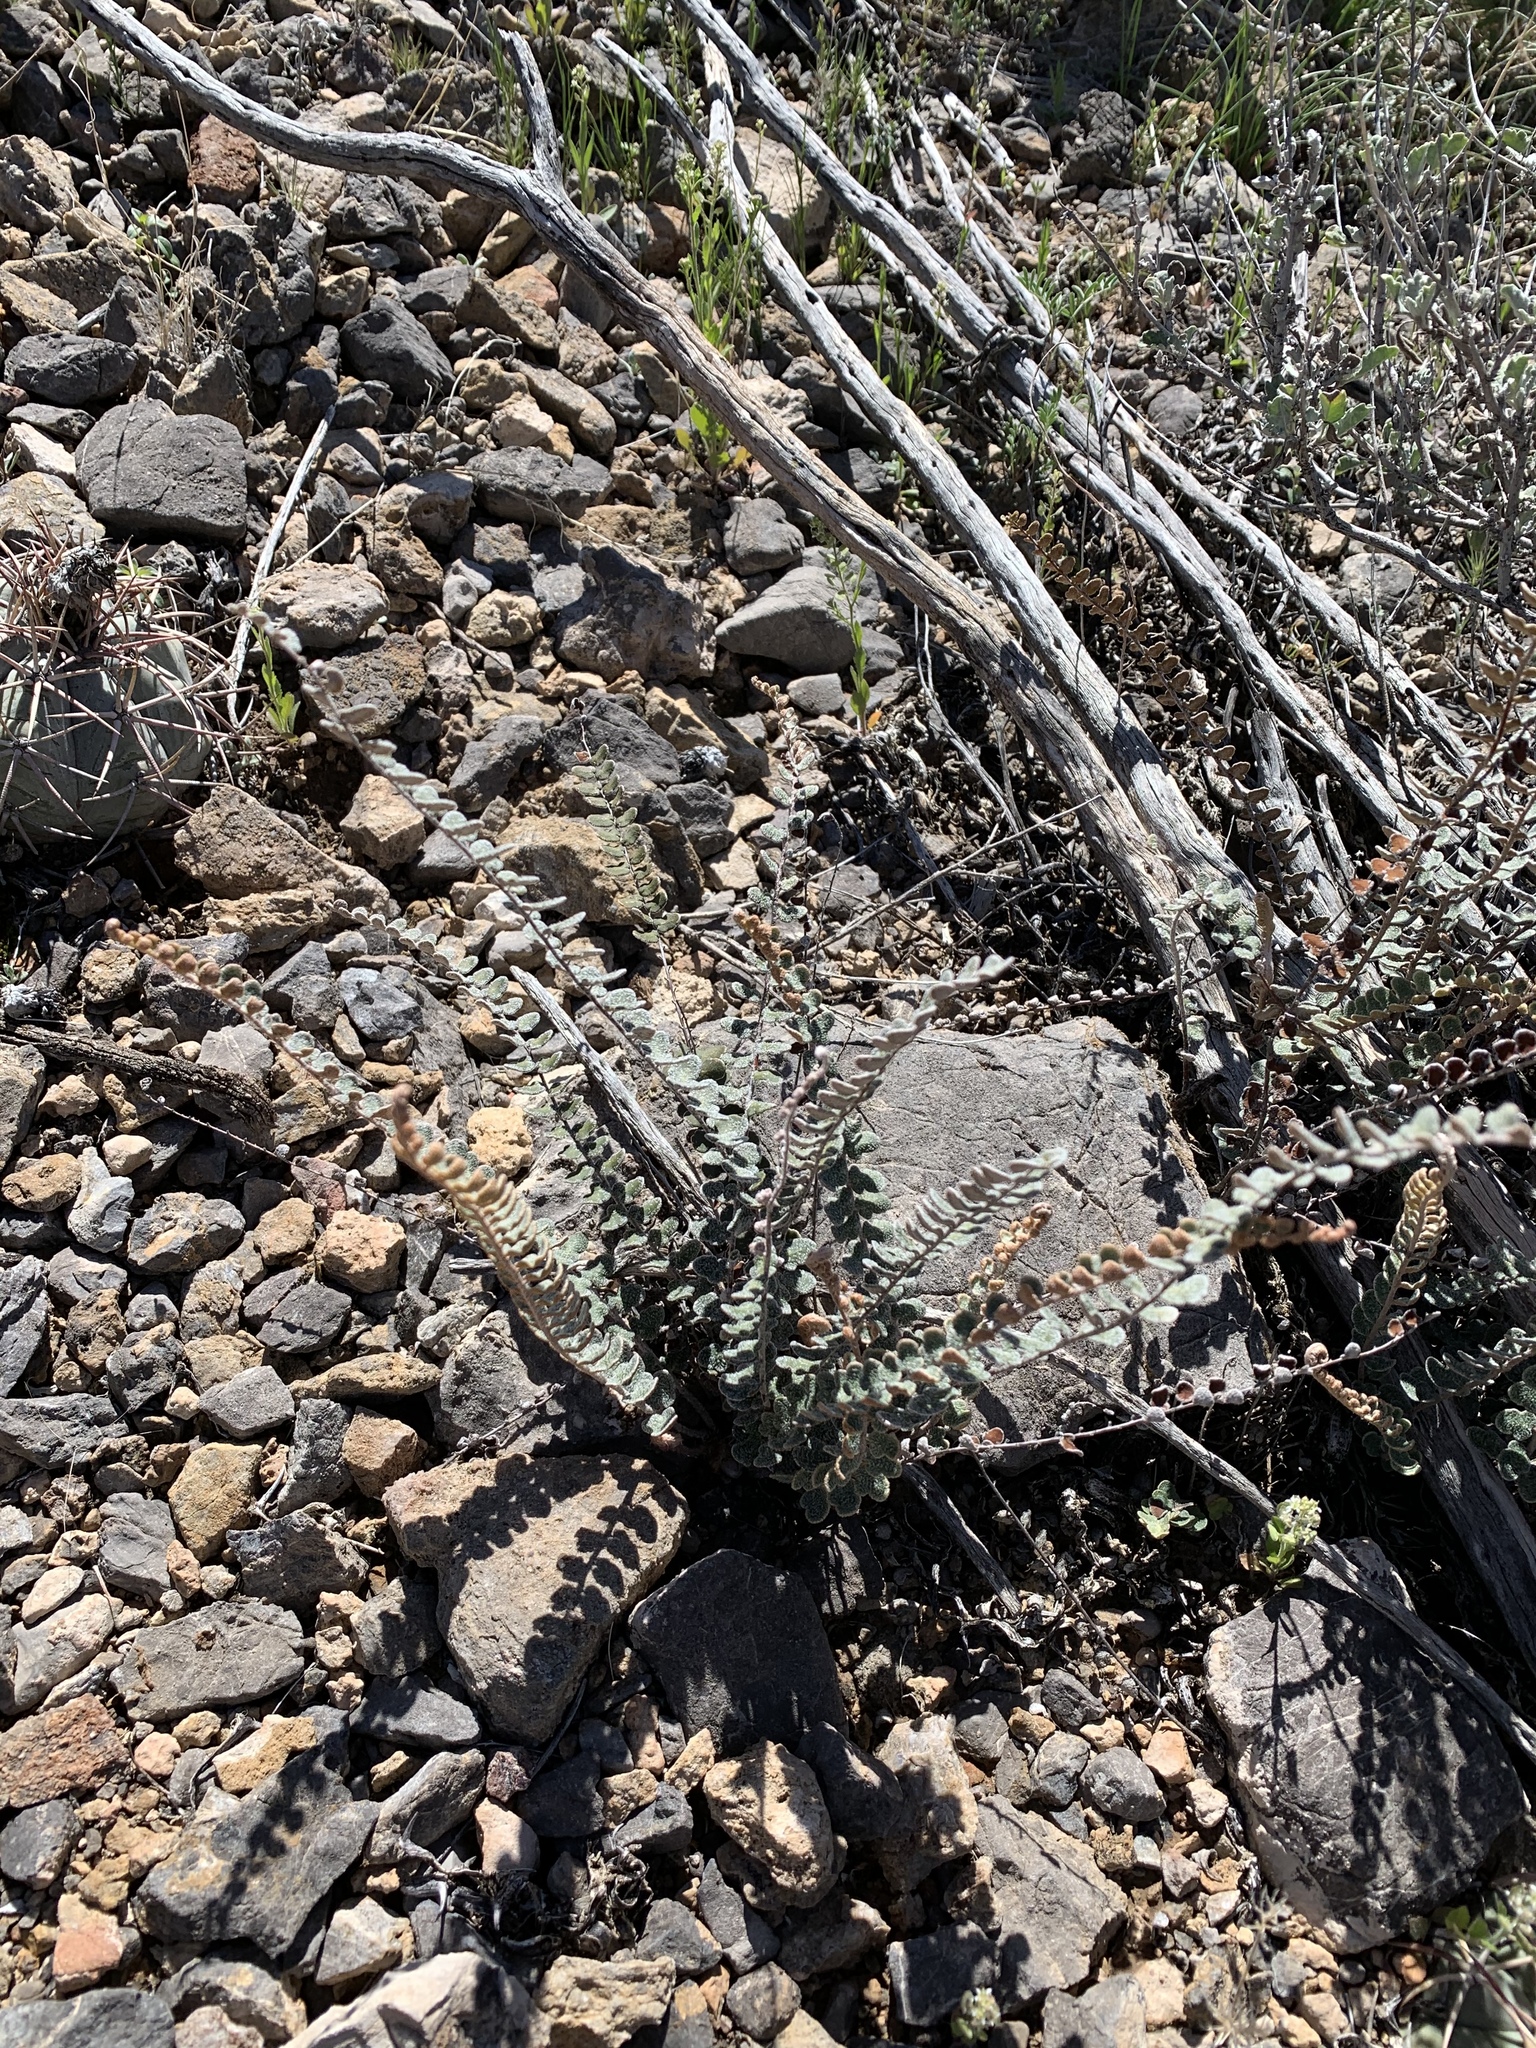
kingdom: Plantae
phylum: Tracheophyta
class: Polypodiopsida
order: Polypodiales
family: Pteridaceae
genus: Astrolepis
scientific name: Astrolepis cochisensis
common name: Scaly cloak fern
